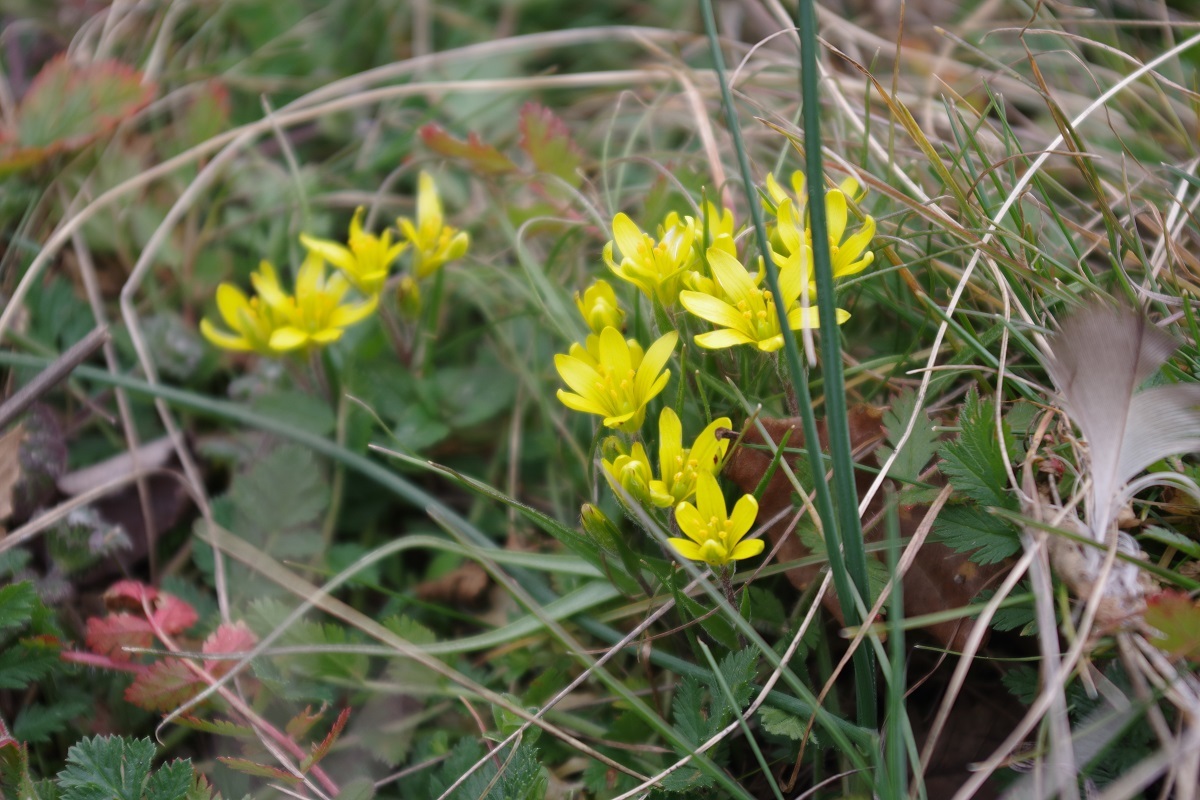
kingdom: Plantae
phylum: Tracheophyta
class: Liliopsida
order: Liliales
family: Liliaceae
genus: Gagea
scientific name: Gagea bohemica
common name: Early star-of-bethlehem
